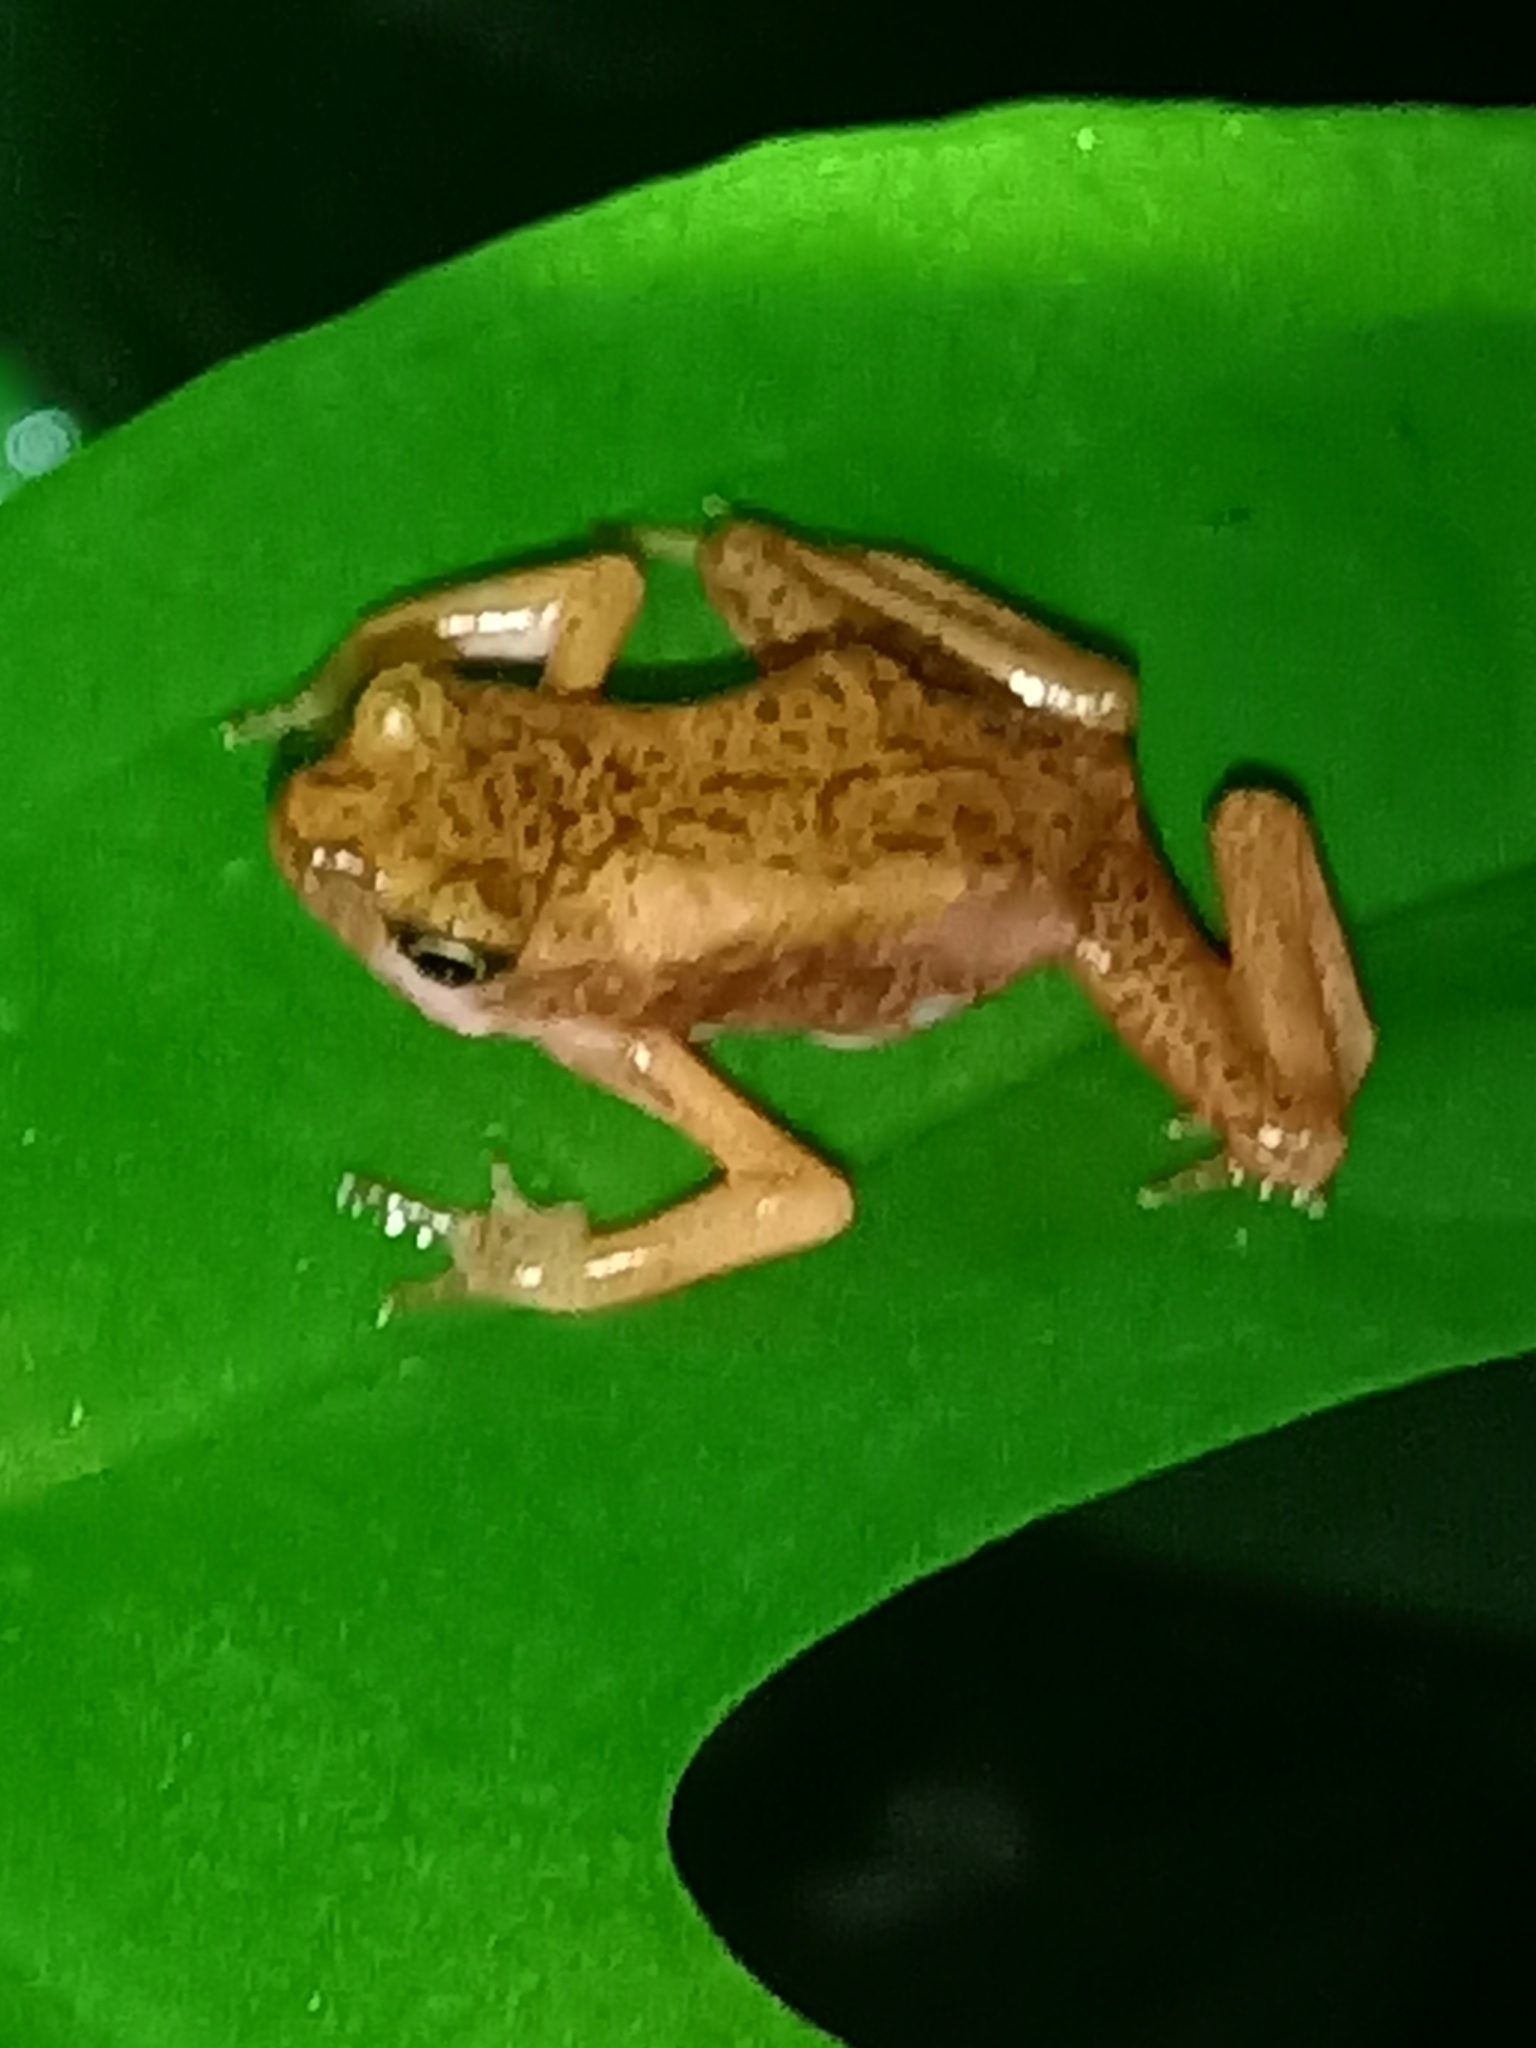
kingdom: Animalia
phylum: Chordata
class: Amphibia
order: Anura
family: Bufonidae
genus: Atelopus
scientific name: Atelopus flavescens
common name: Cayenne stubfoot toad
